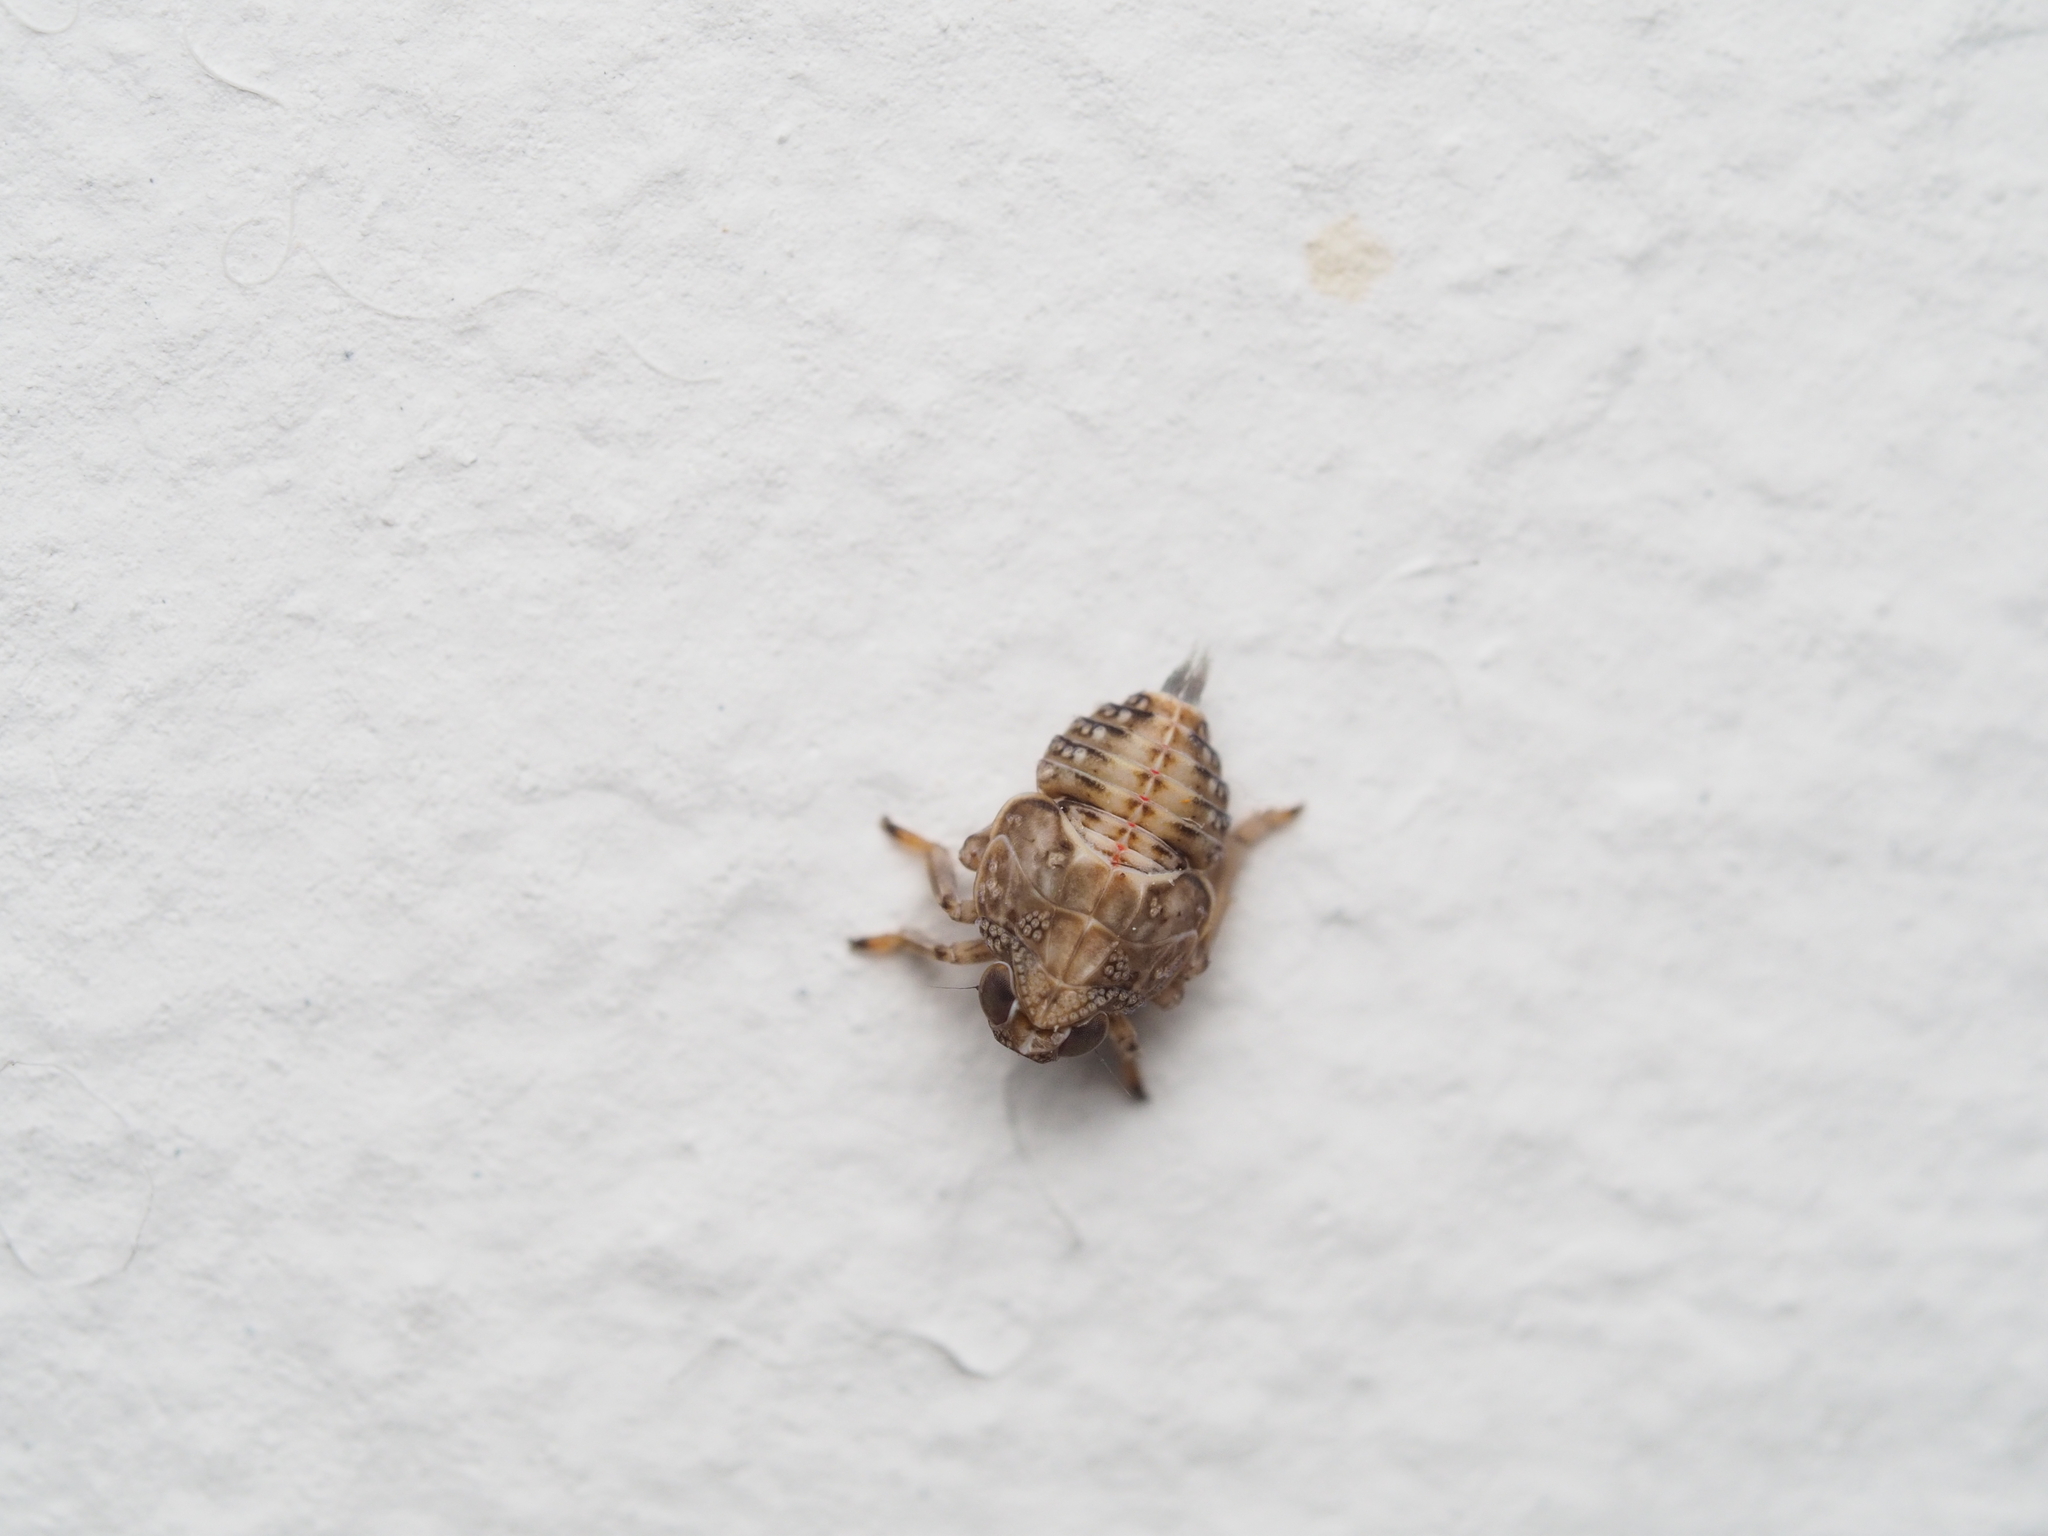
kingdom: Animalia
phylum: Arthropoda
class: Insecta
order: Hemiptera
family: Issidae
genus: Issus
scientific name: Issus coleoptratus
